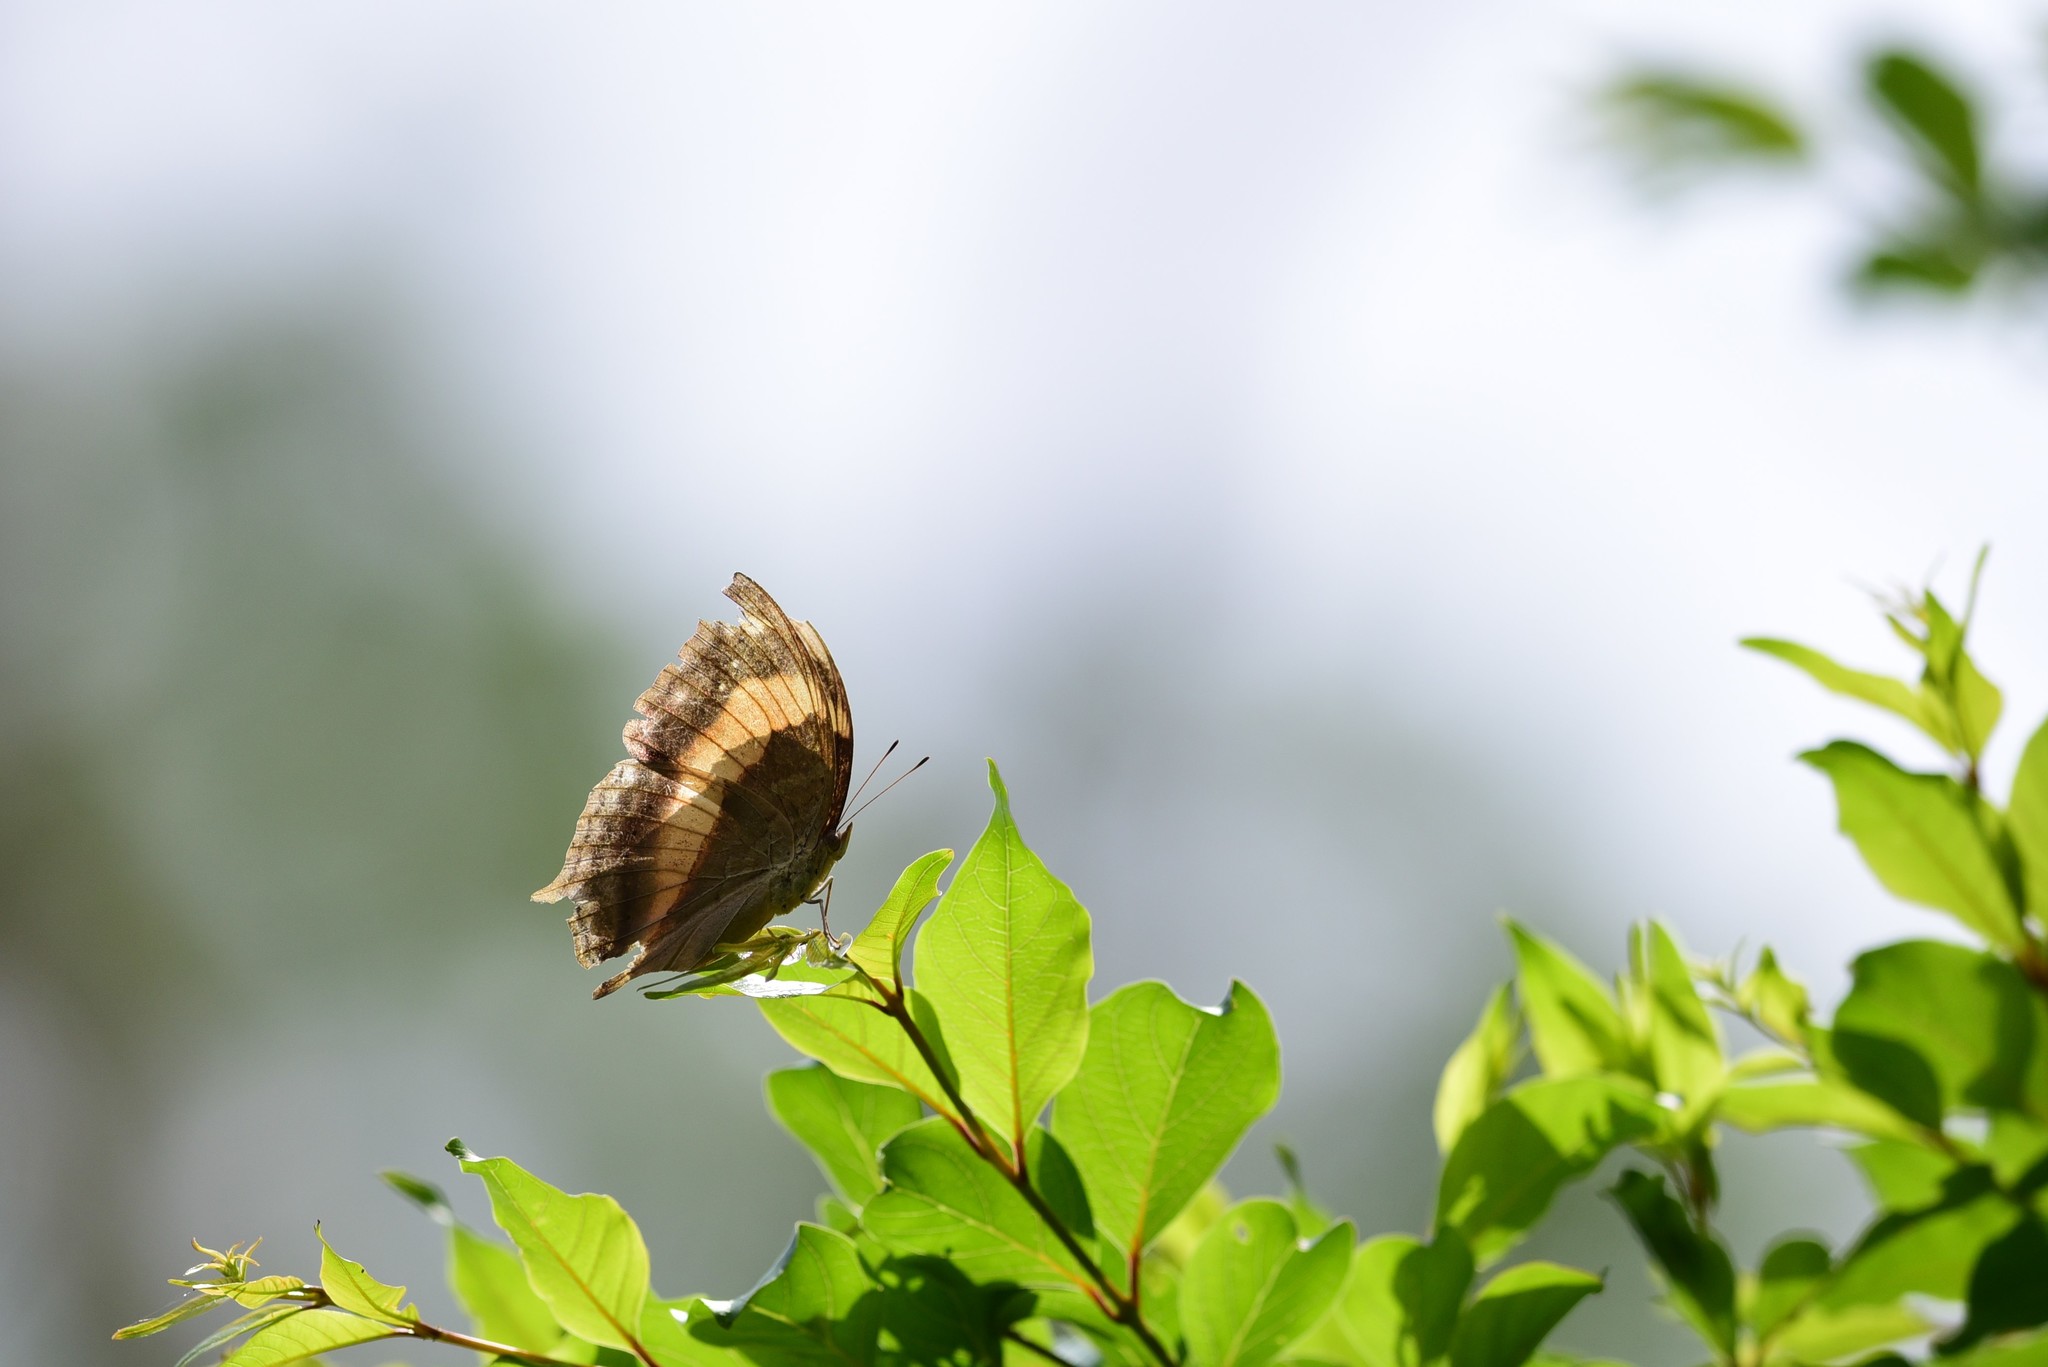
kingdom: Animalia
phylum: Arthropoda
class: Insecta
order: Lepidoptera
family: Nymphalidae
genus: Yoma
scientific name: Yoma sabina
